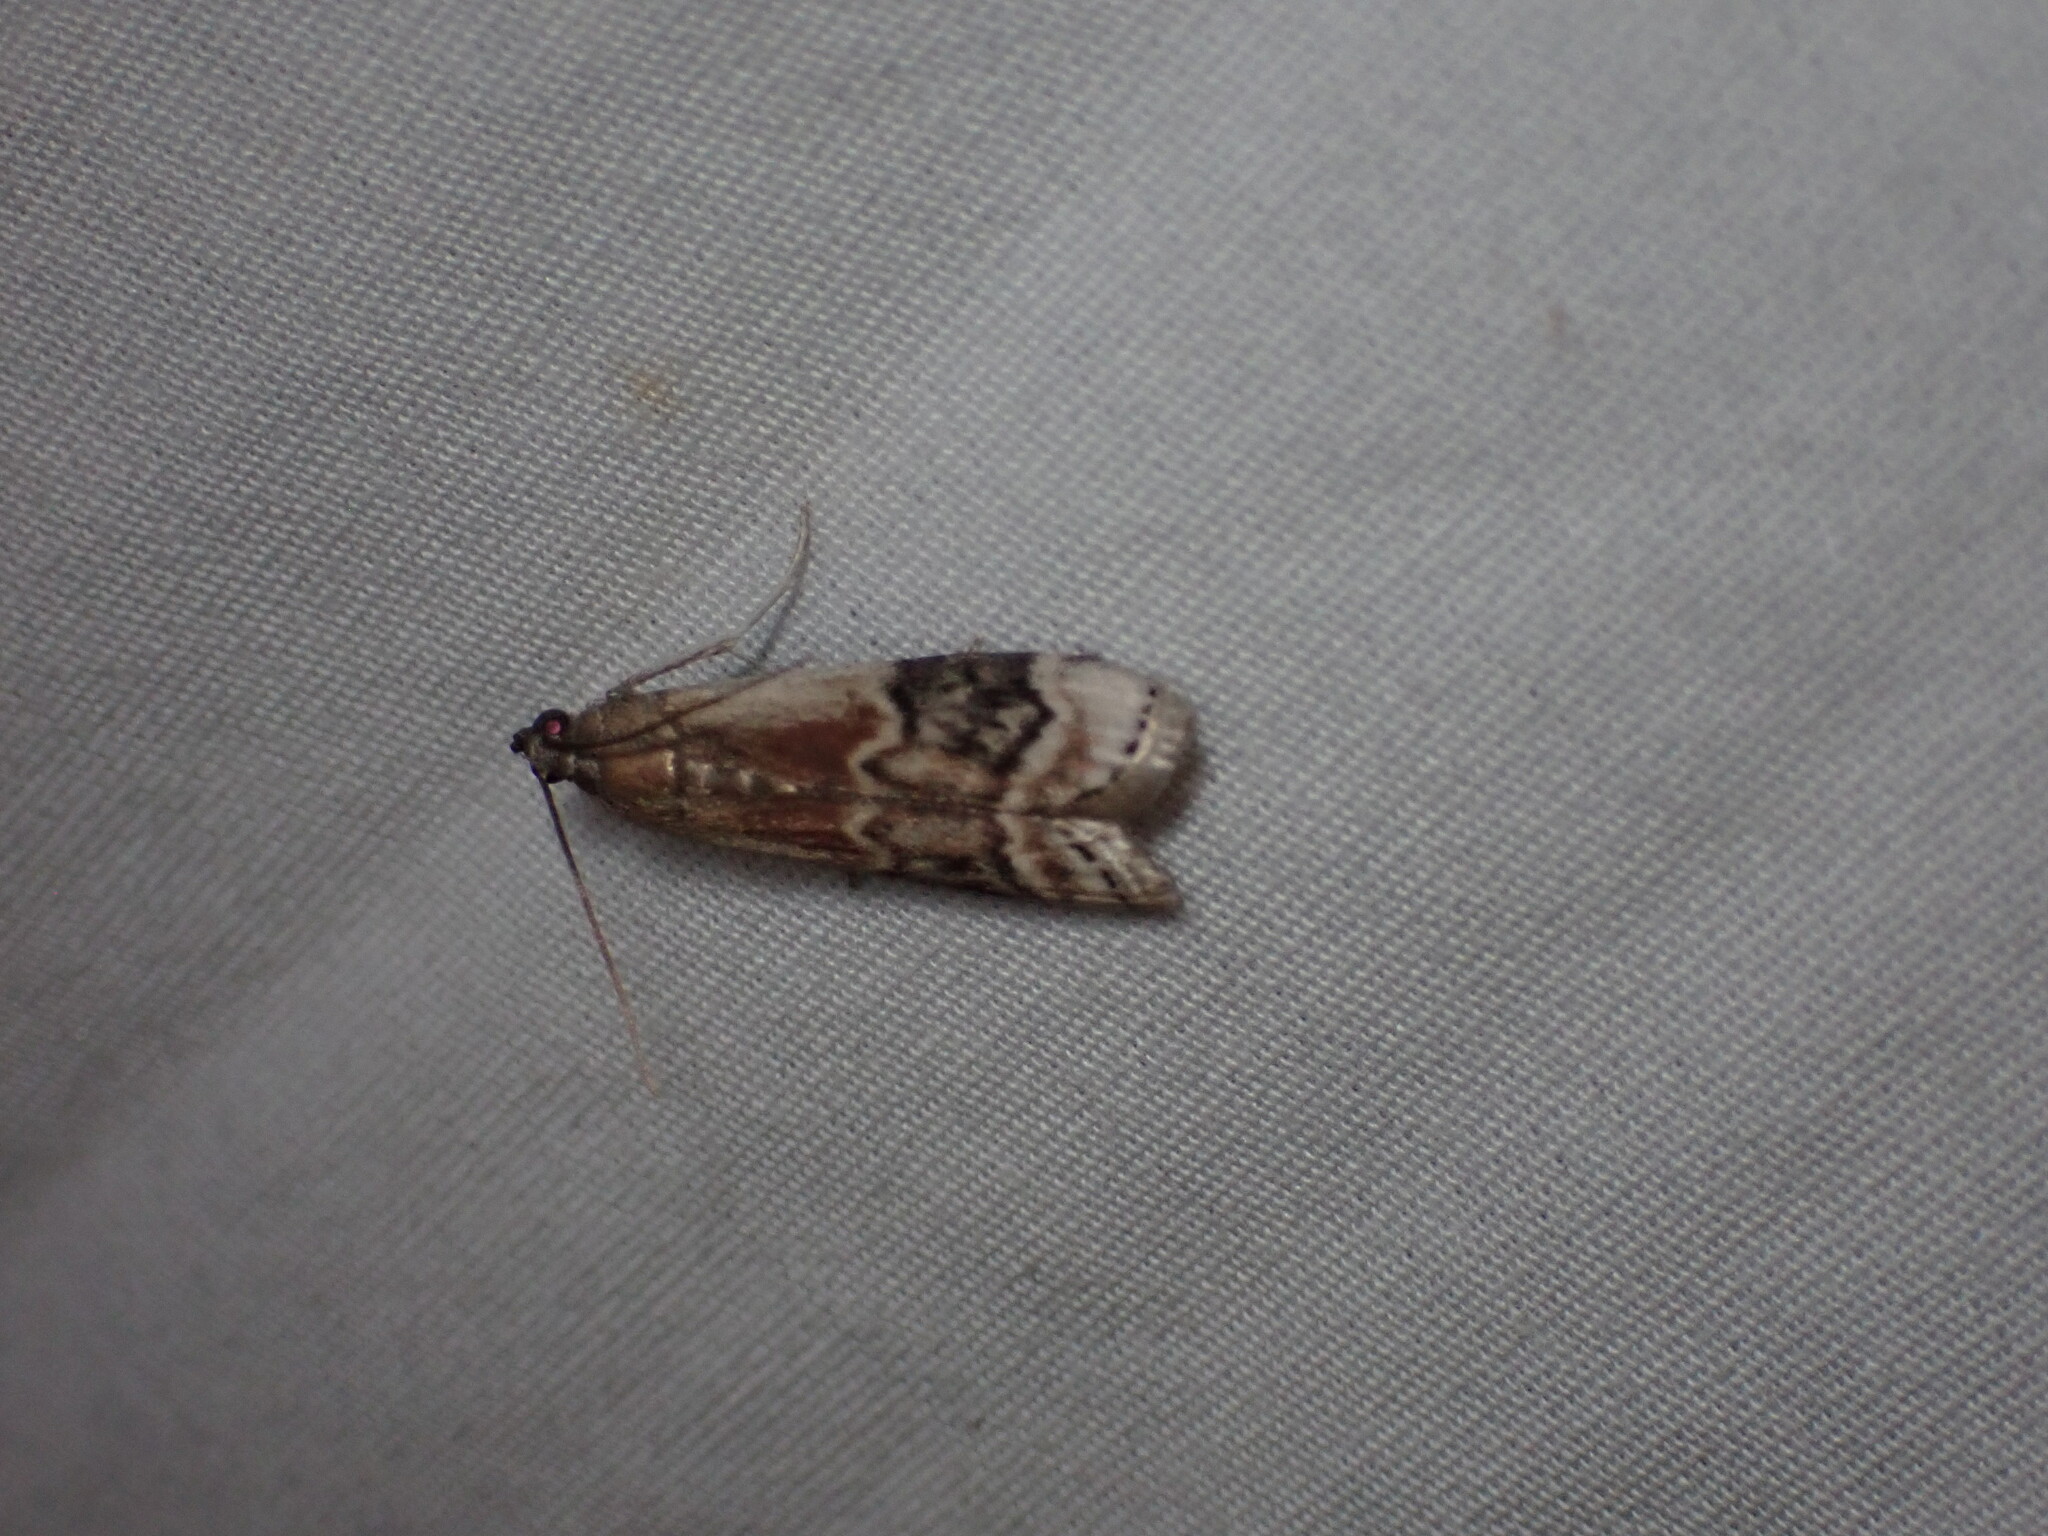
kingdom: Animalia
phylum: Arthropoda
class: Insecta
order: Lepidoptera
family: Pyralidae
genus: Euzophera
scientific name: Euzophera semifuneralis
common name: American plum borer moth
